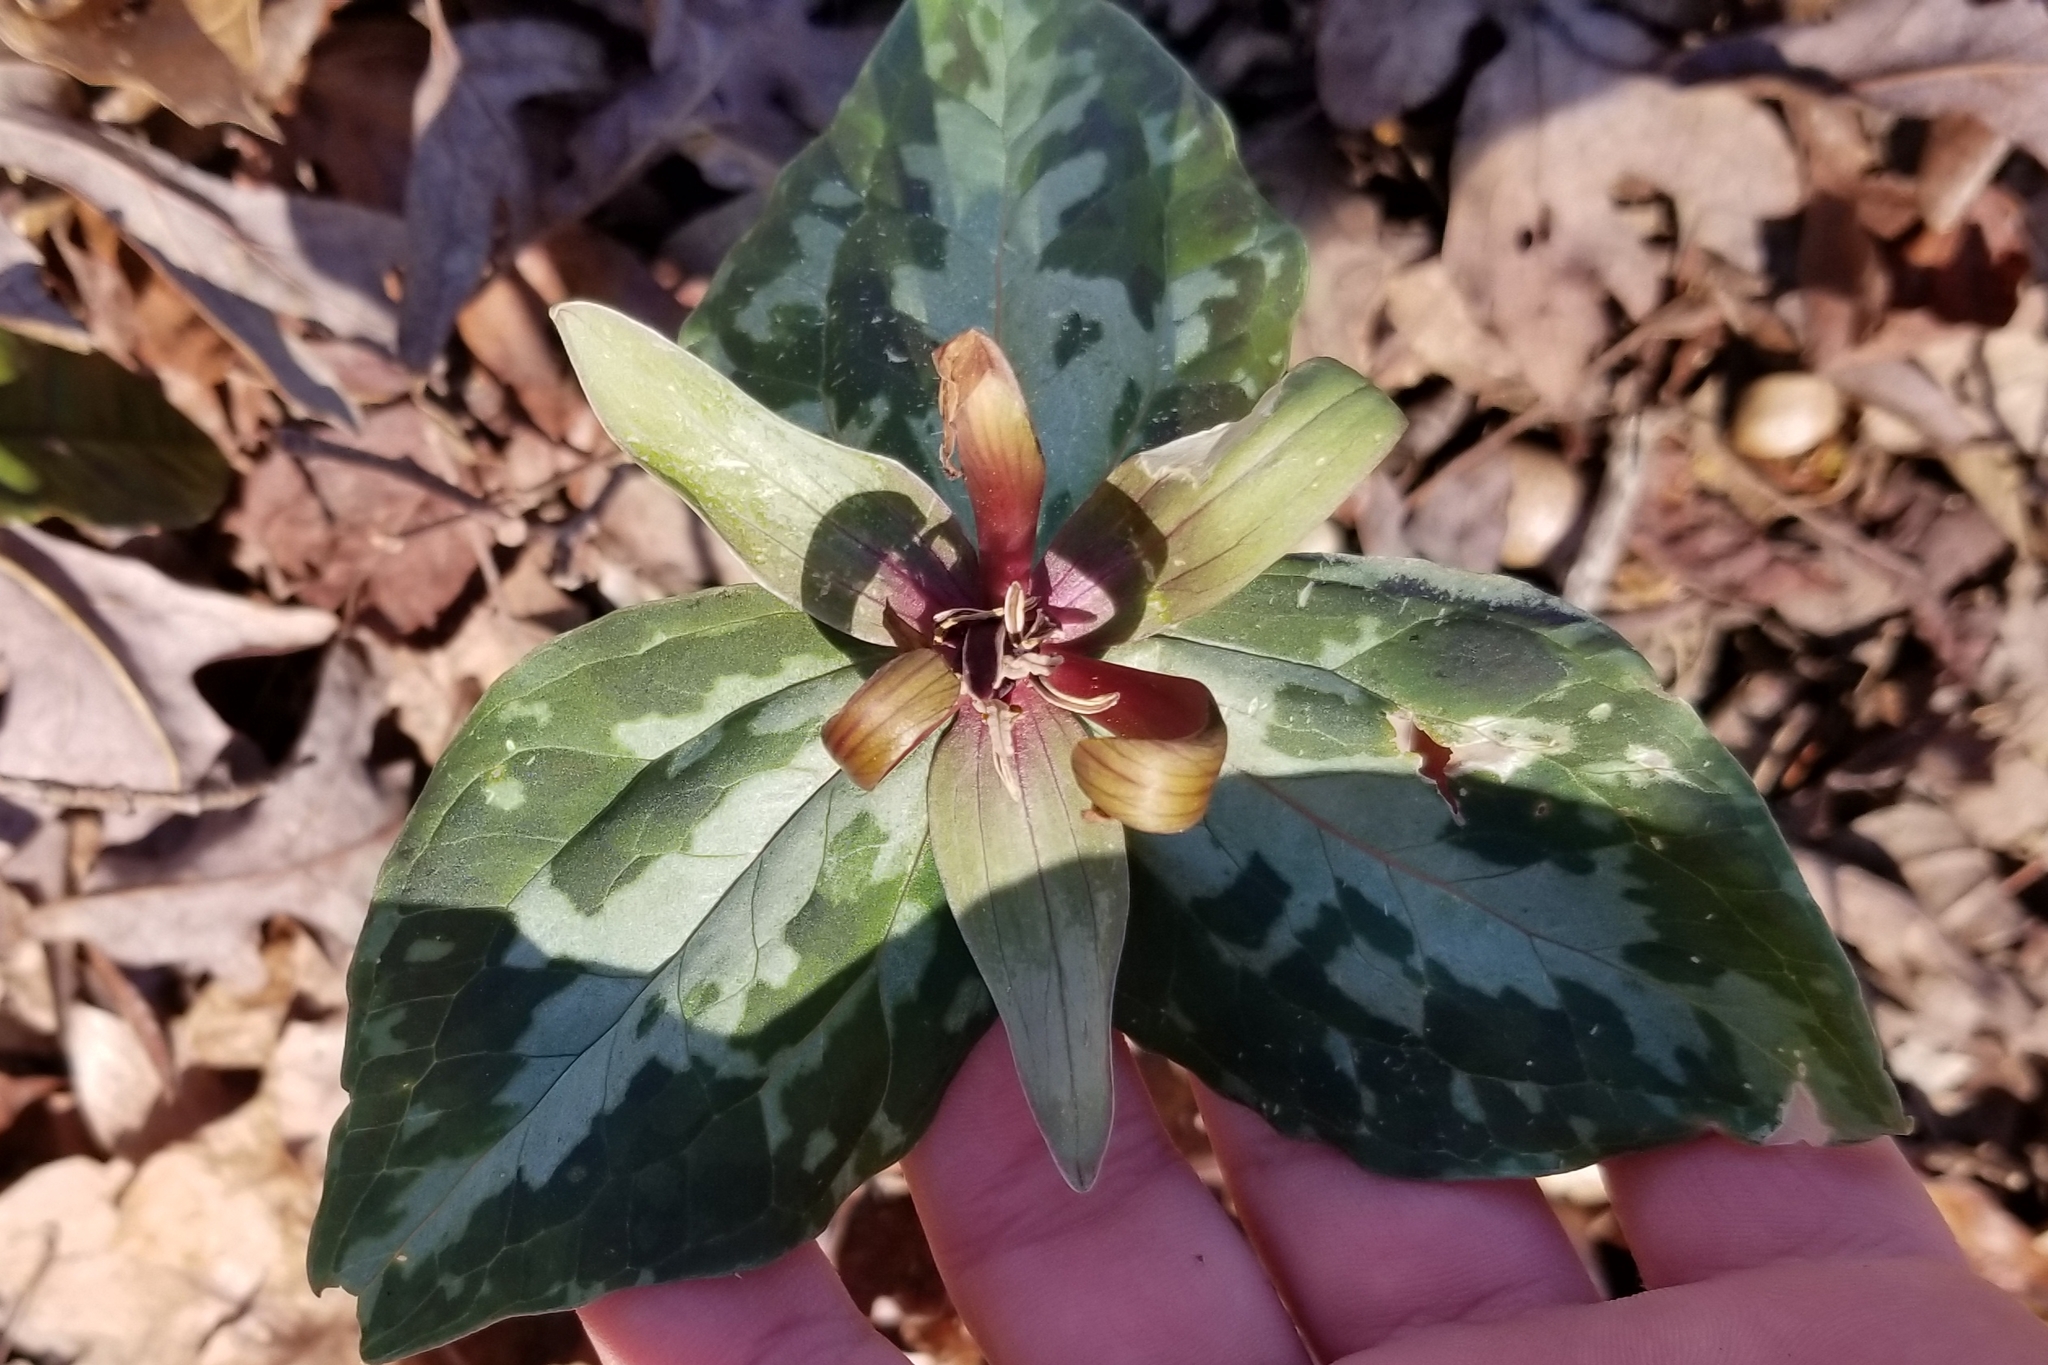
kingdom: Plantae
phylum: Tracheophyta
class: Liliopsida
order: Liliales
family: Melanthiaceae
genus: Trillium
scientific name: Trillium cuneatum
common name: Cuneate trillium
